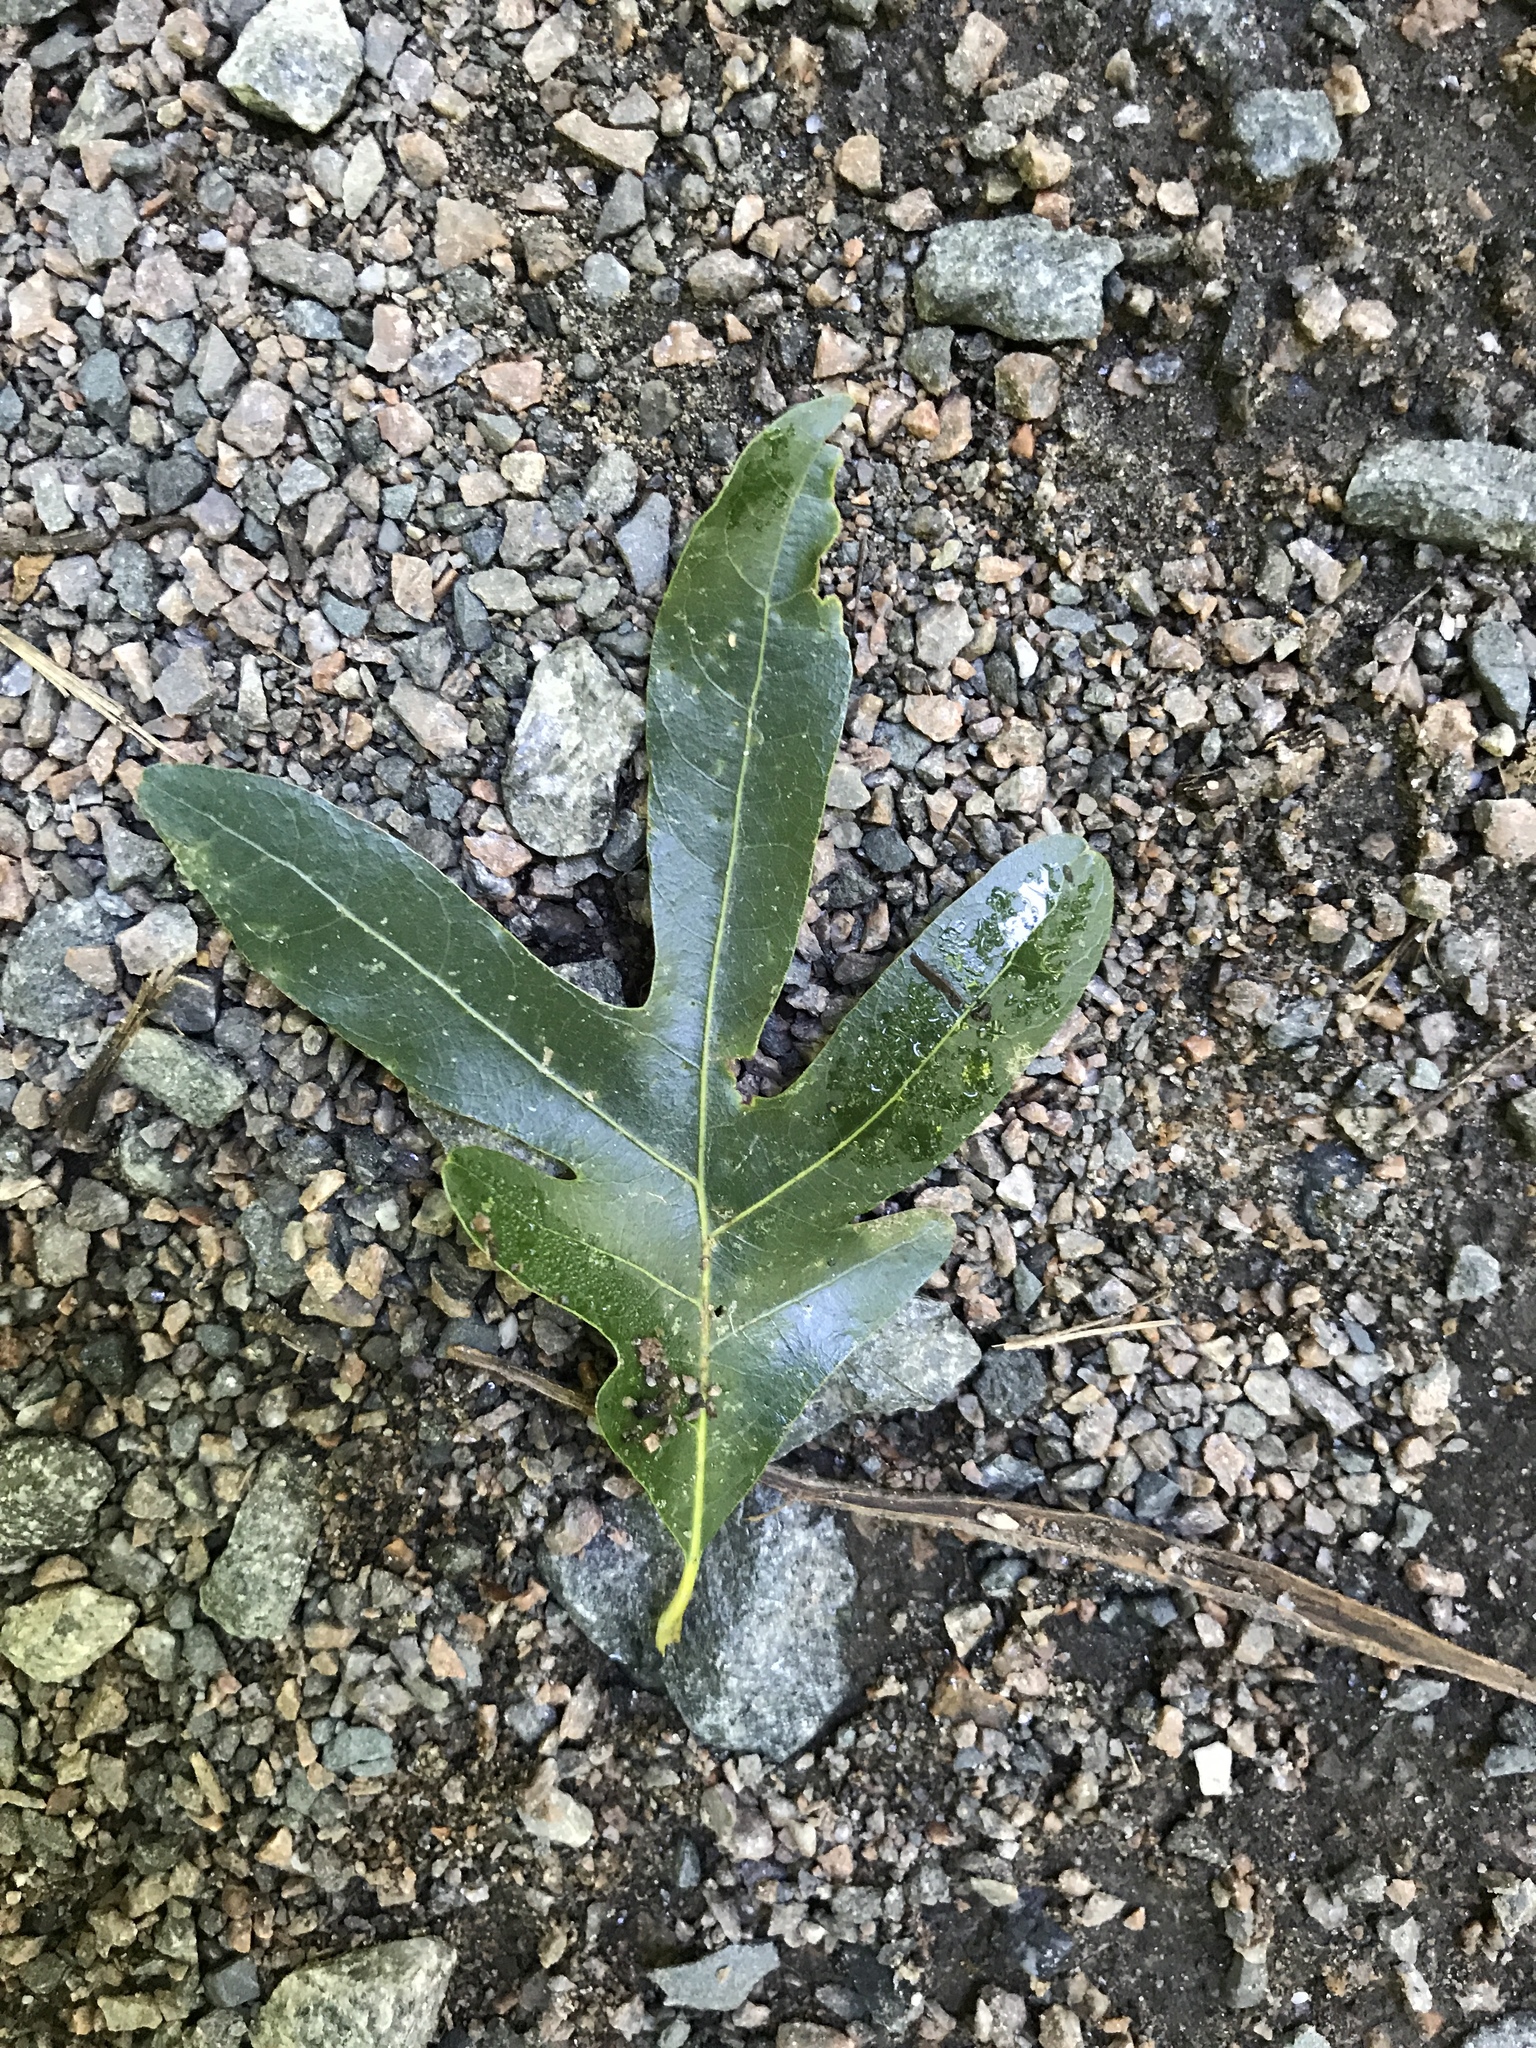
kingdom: Plantae
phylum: Tracheophyta
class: Magnoliopsida
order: Fagales
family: Fagaceae
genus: Quercus
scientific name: Quercus alba
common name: White oak
